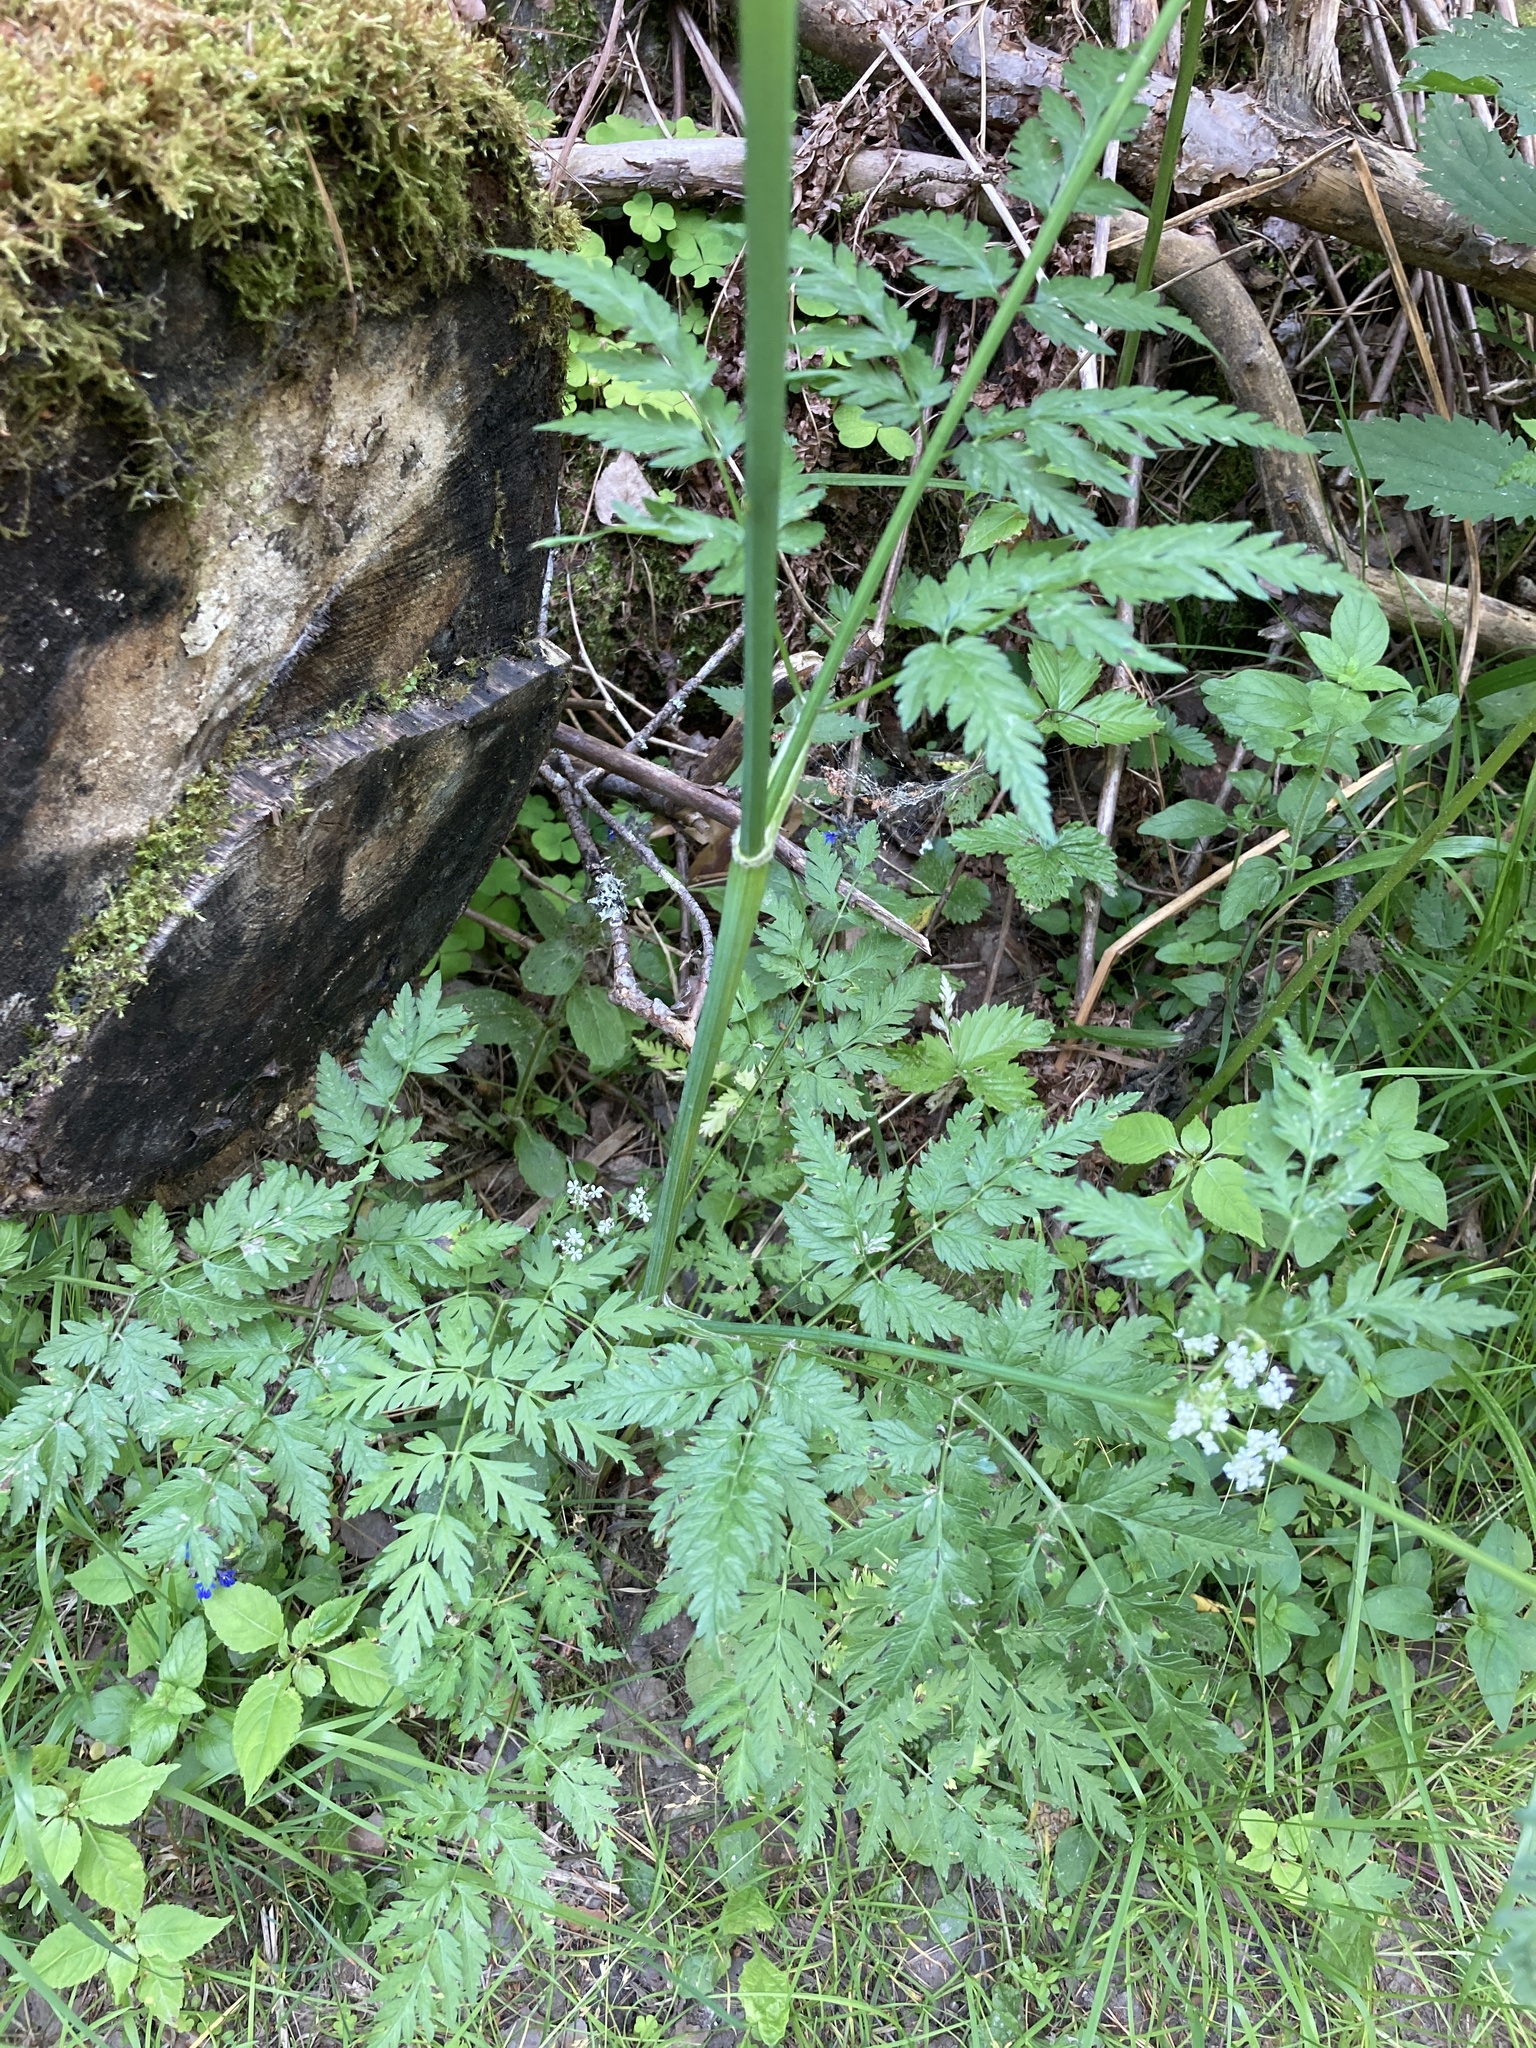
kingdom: Plantae
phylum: Tracheophyta
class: Magnoliopsida
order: Apiales
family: Apiaceae
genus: Anthriscus
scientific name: Anthriscus sylvestris
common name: Cow parsley
